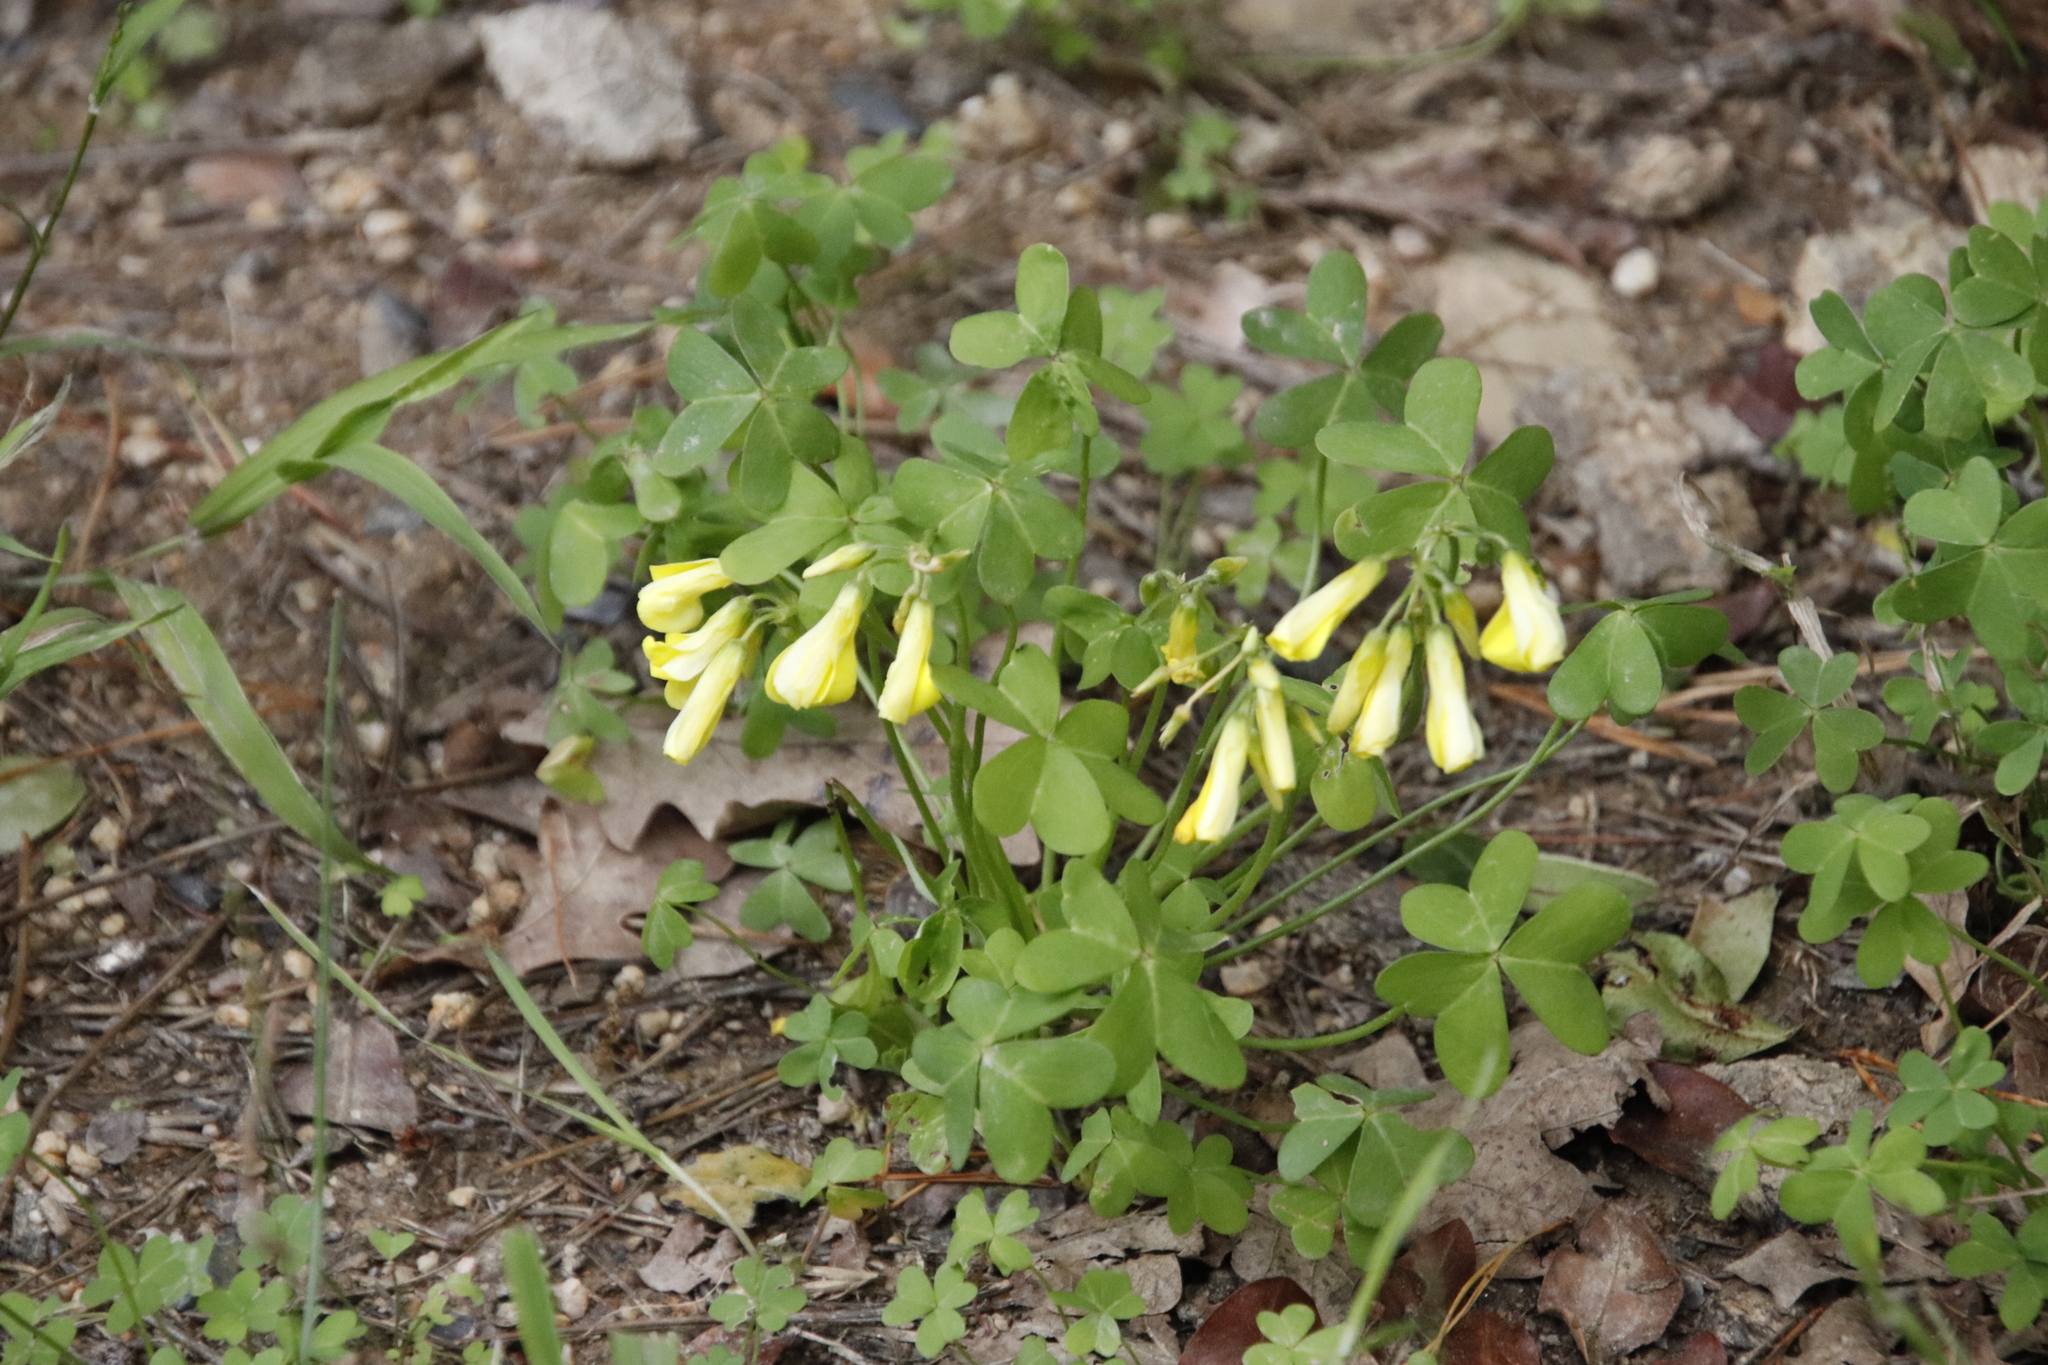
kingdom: Plantae
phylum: Tracheophyta
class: Magnoliopsida
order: Oxalidales
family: Oxalidaceae
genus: Oxalis
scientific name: Oxalis pes-caprae
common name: Bermuda-buttercup
